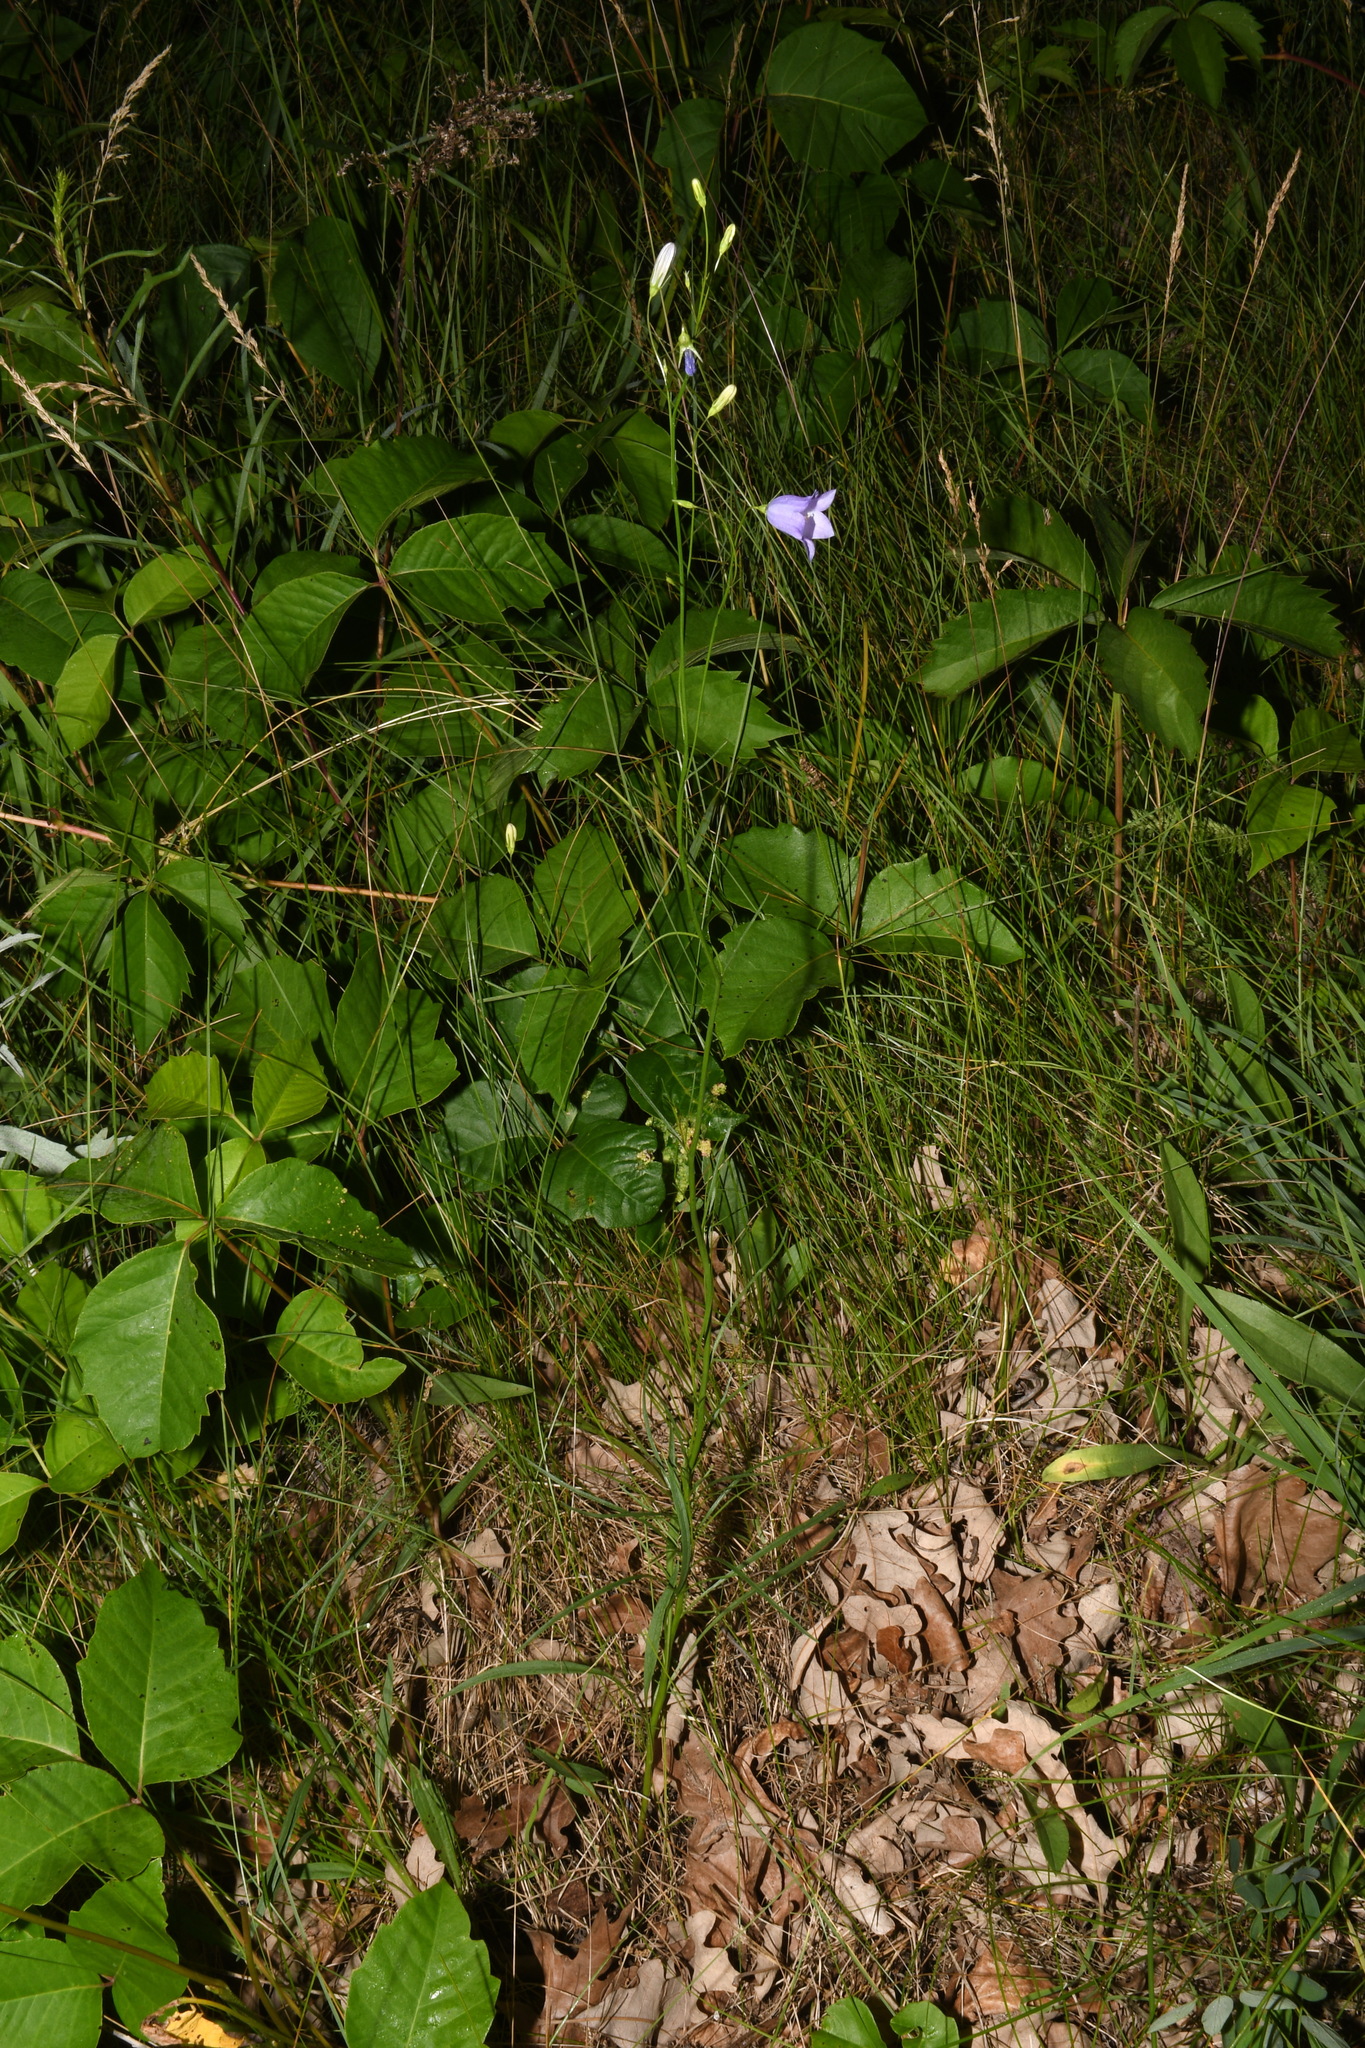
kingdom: Plantae
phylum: Tracheophyta
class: Magnoliopsida
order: Asterales
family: Campanulaceae
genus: Campanula
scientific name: Campanula intercedens
